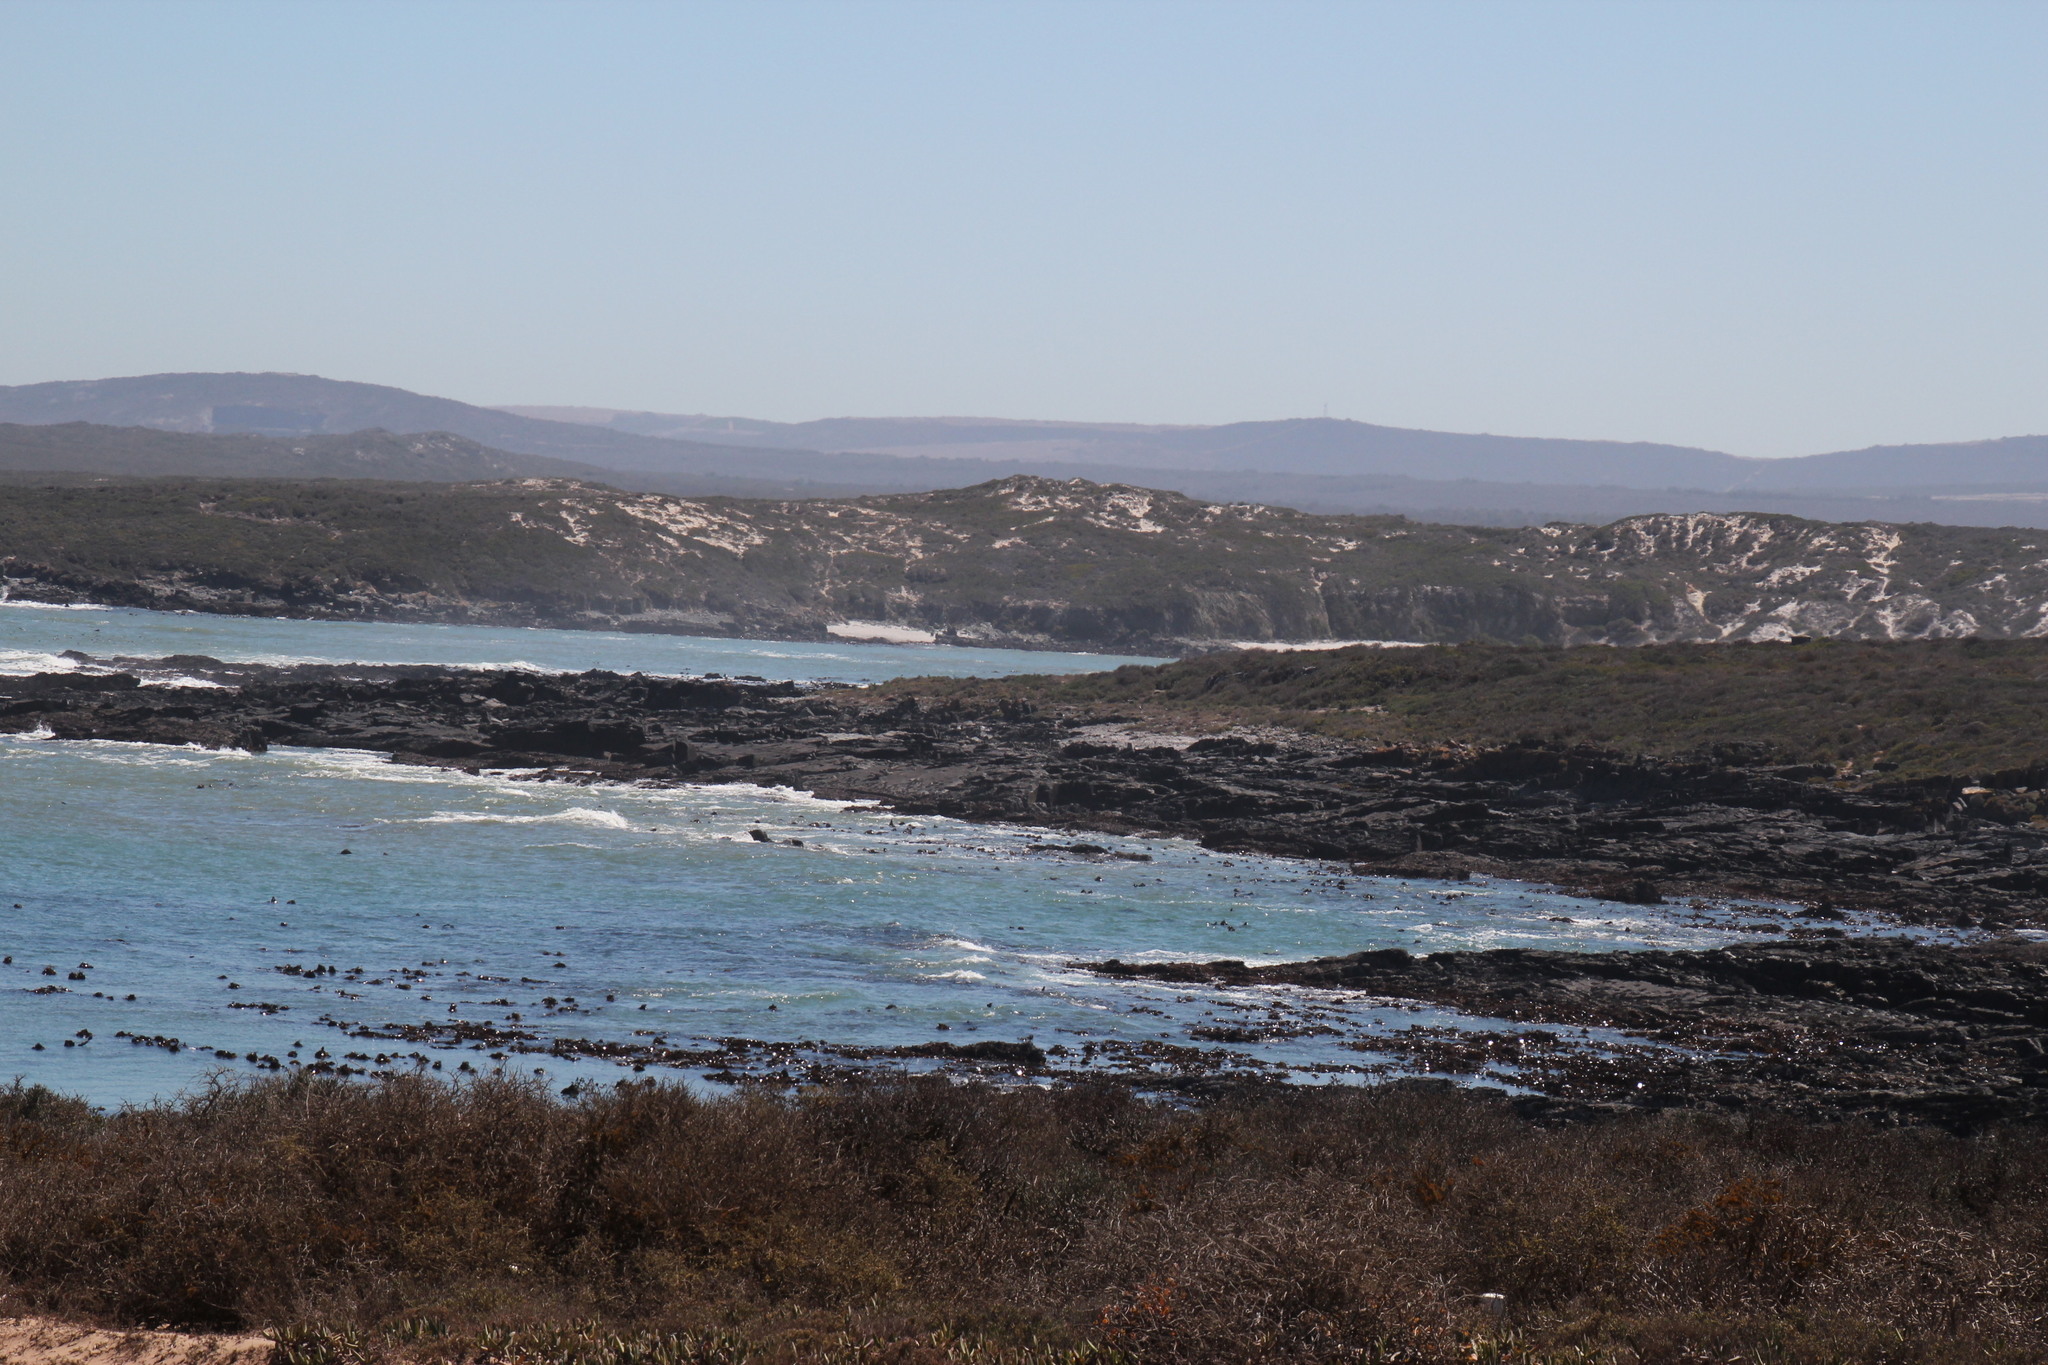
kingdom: Chromista
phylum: Ochrophyta
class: Phaeophyceae
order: Laminariales
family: Lessoniaceae
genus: Ecklonia
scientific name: Ecklonia
